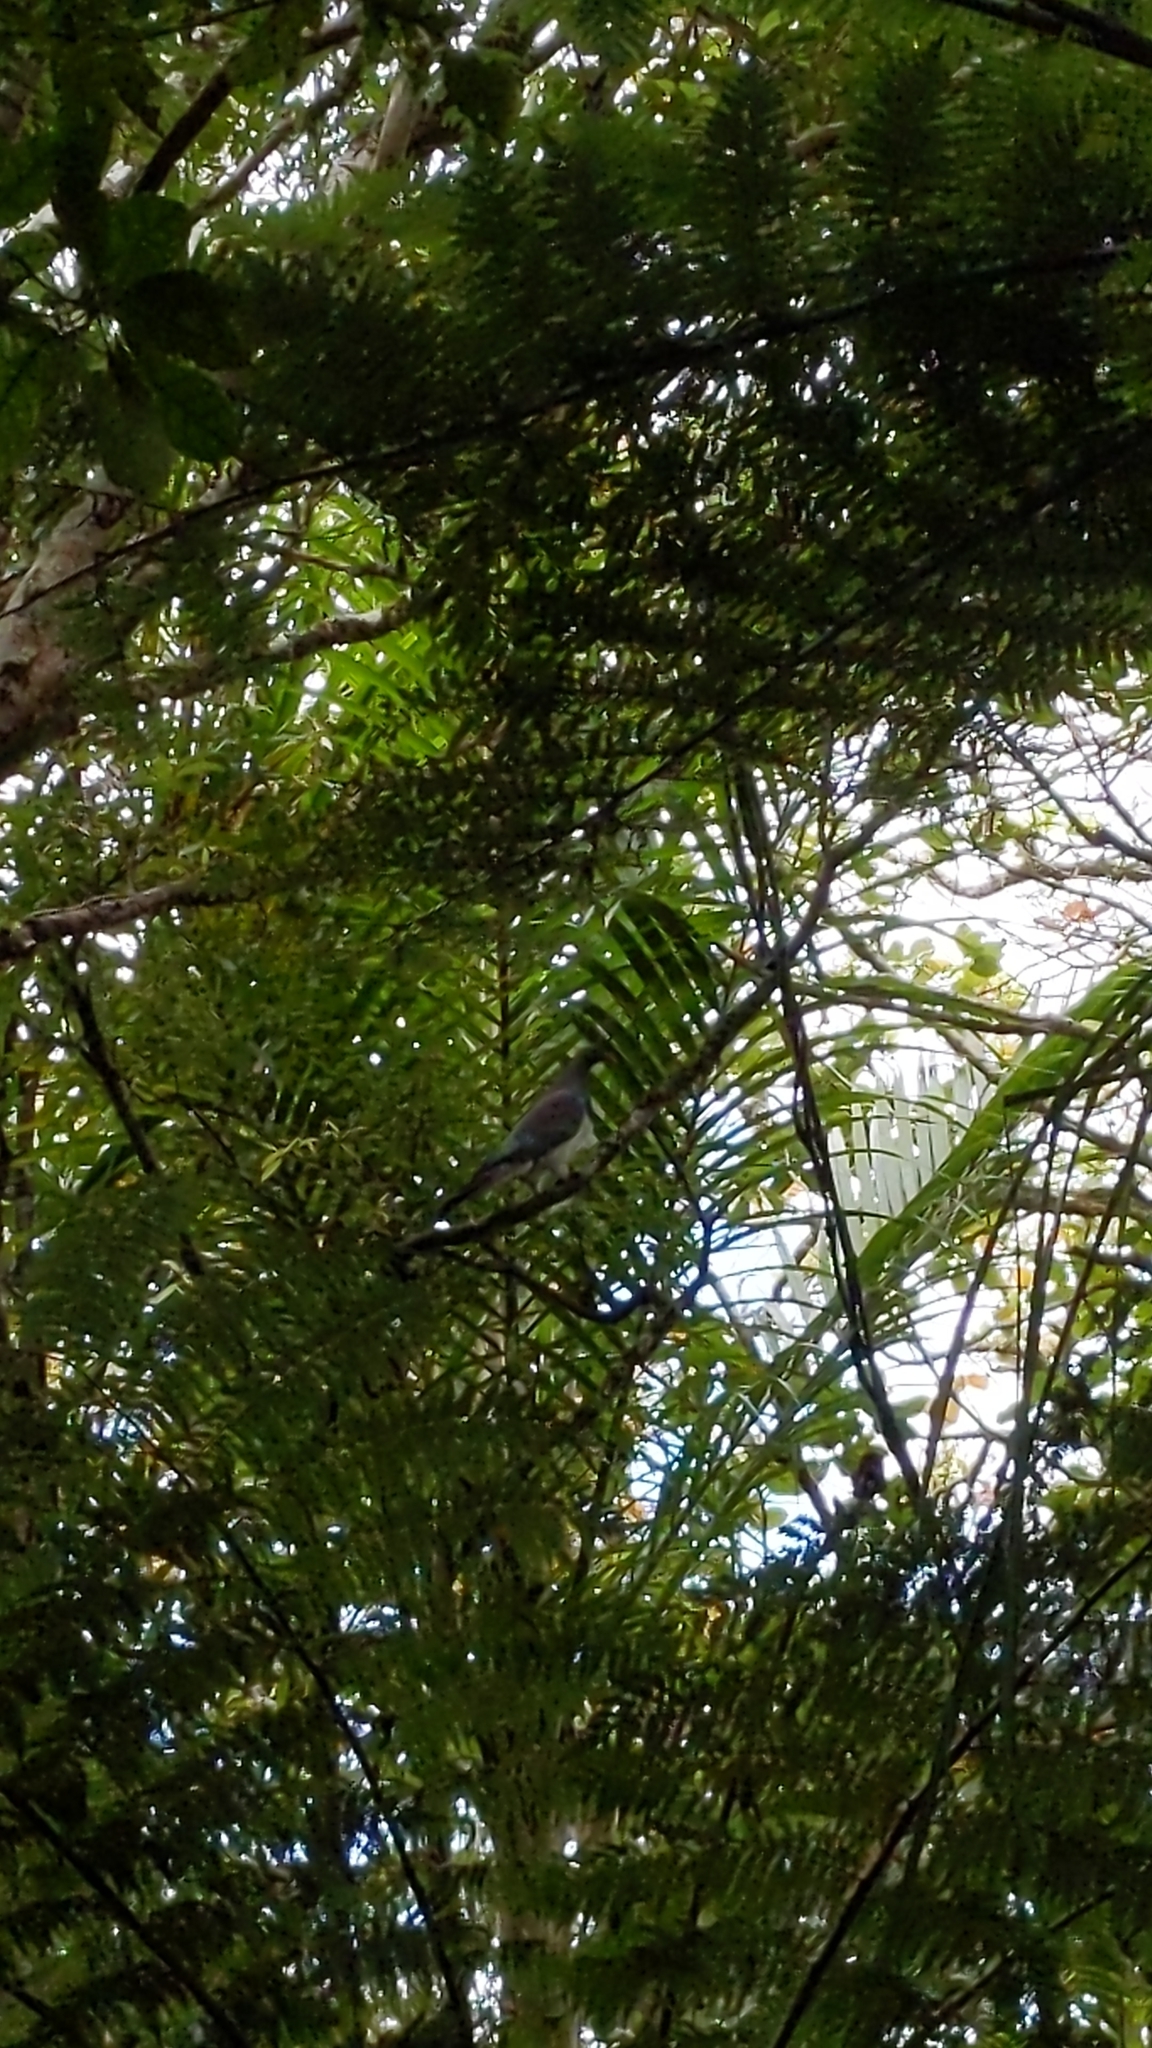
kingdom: Animalia
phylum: Chordata
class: Aves
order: Columbiformes
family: Columbidae
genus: Hemiphaga
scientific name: Hemiphaga novaeseelandiae
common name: New zealand pigeon
